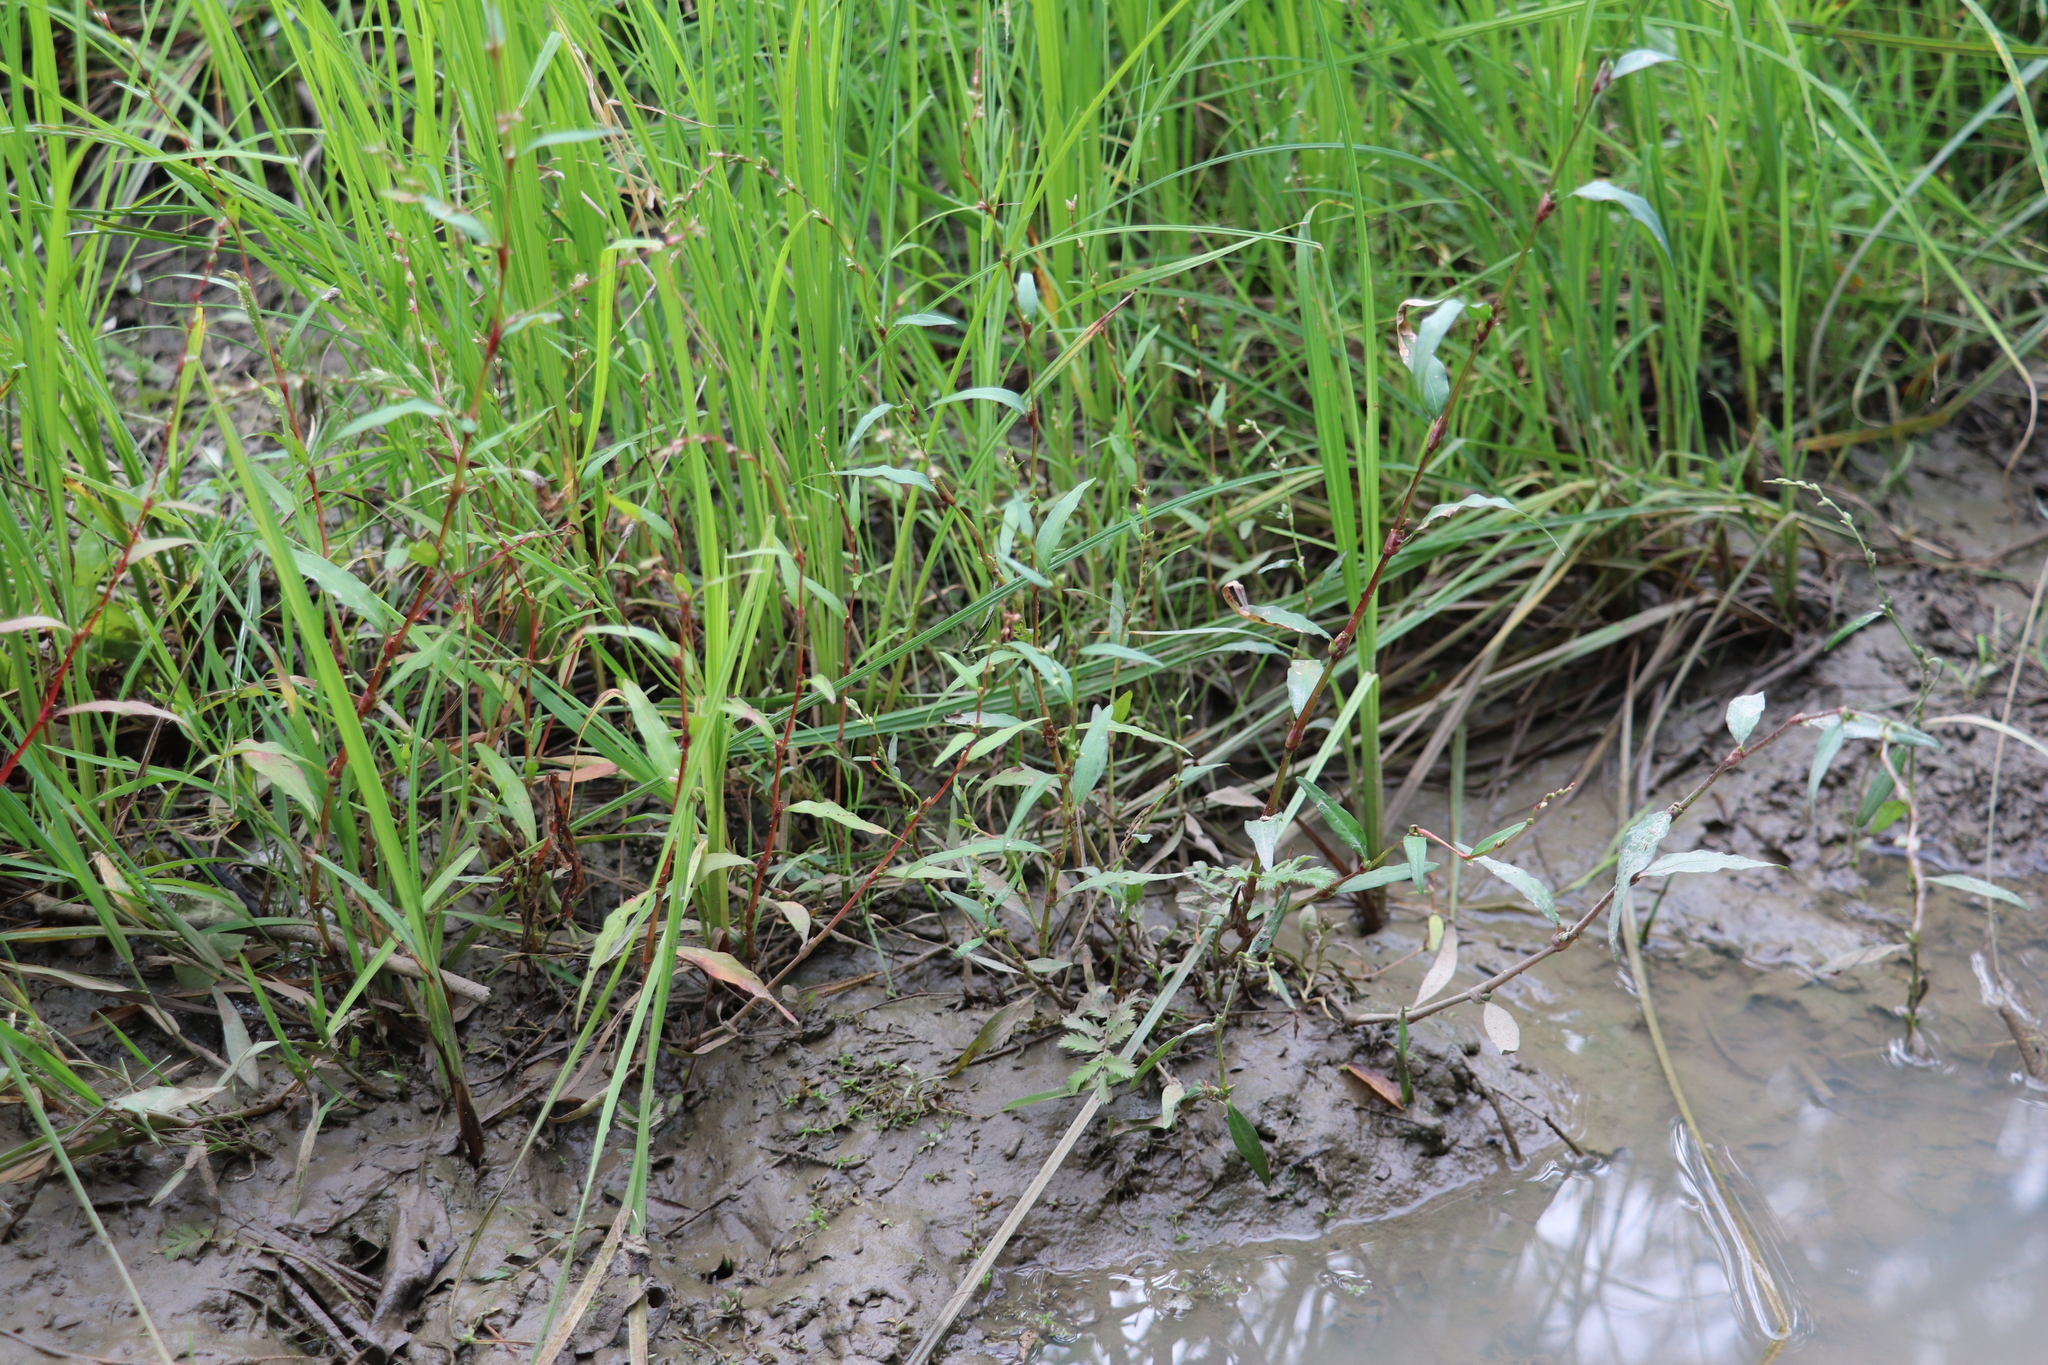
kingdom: Plantae
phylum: Tracheophyta
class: Magnoliopsida
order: Caryophyllales
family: Polygonaceae
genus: Persicaria
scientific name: Persicaria hydropiper
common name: Water-pepper
